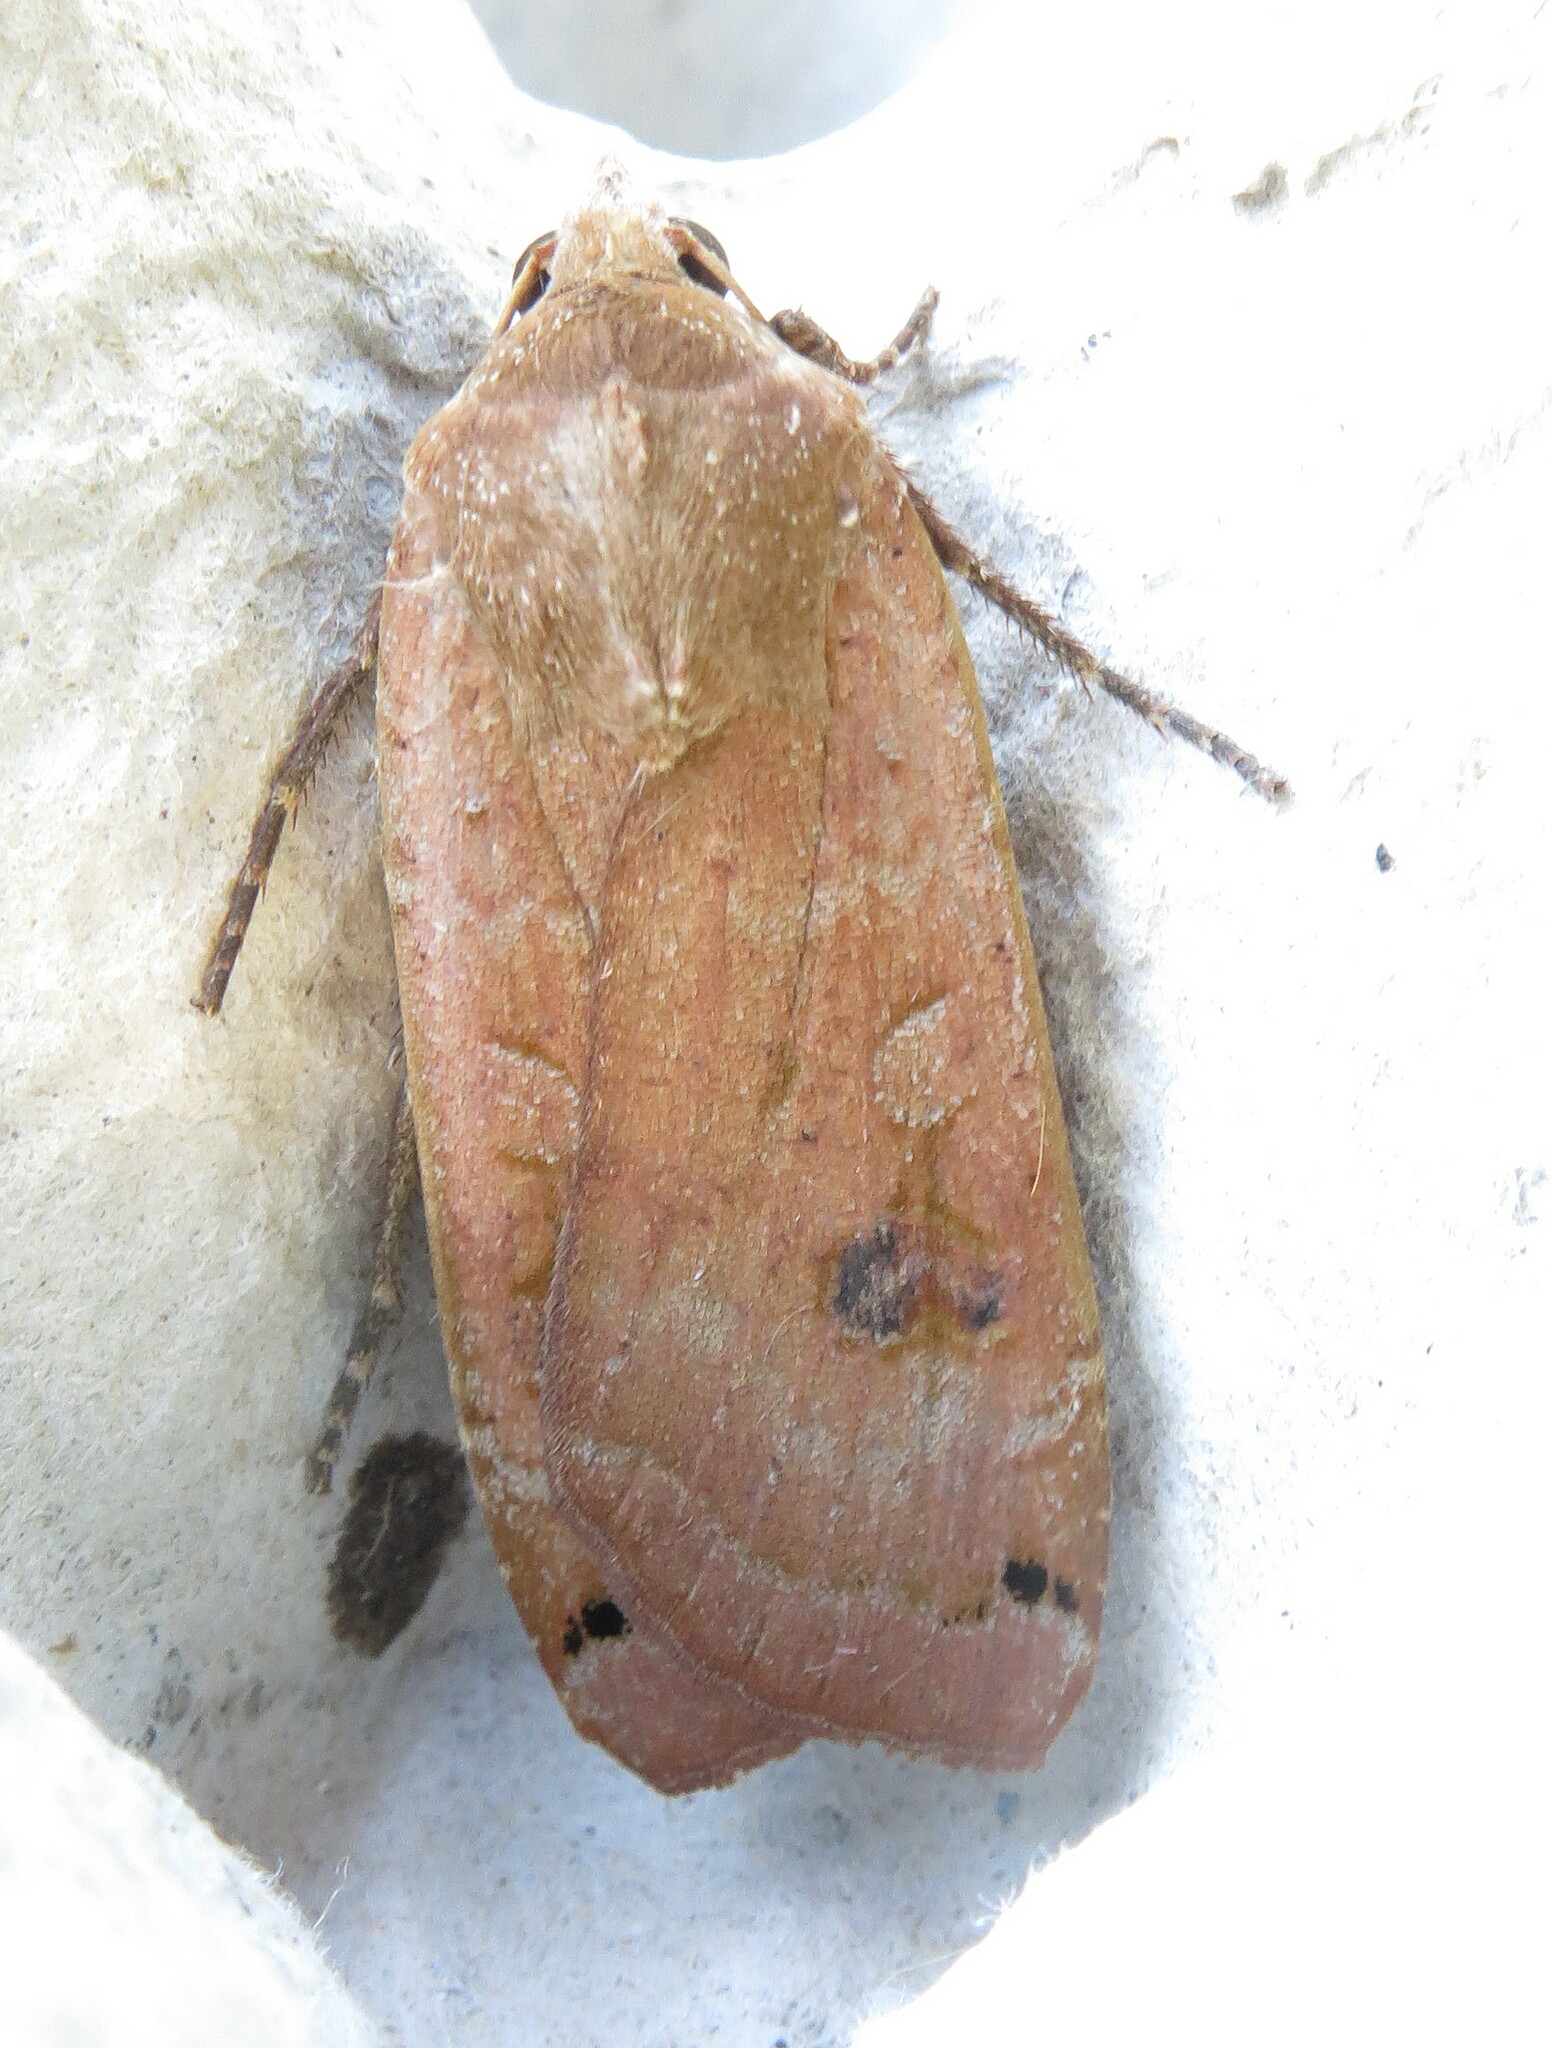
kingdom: Animalia
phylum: Arthropoda
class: Insecta
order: Lepidoptera
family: Noctuidae
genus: Noctua
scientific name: Noctua pronuba
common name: Large yellow underwing
